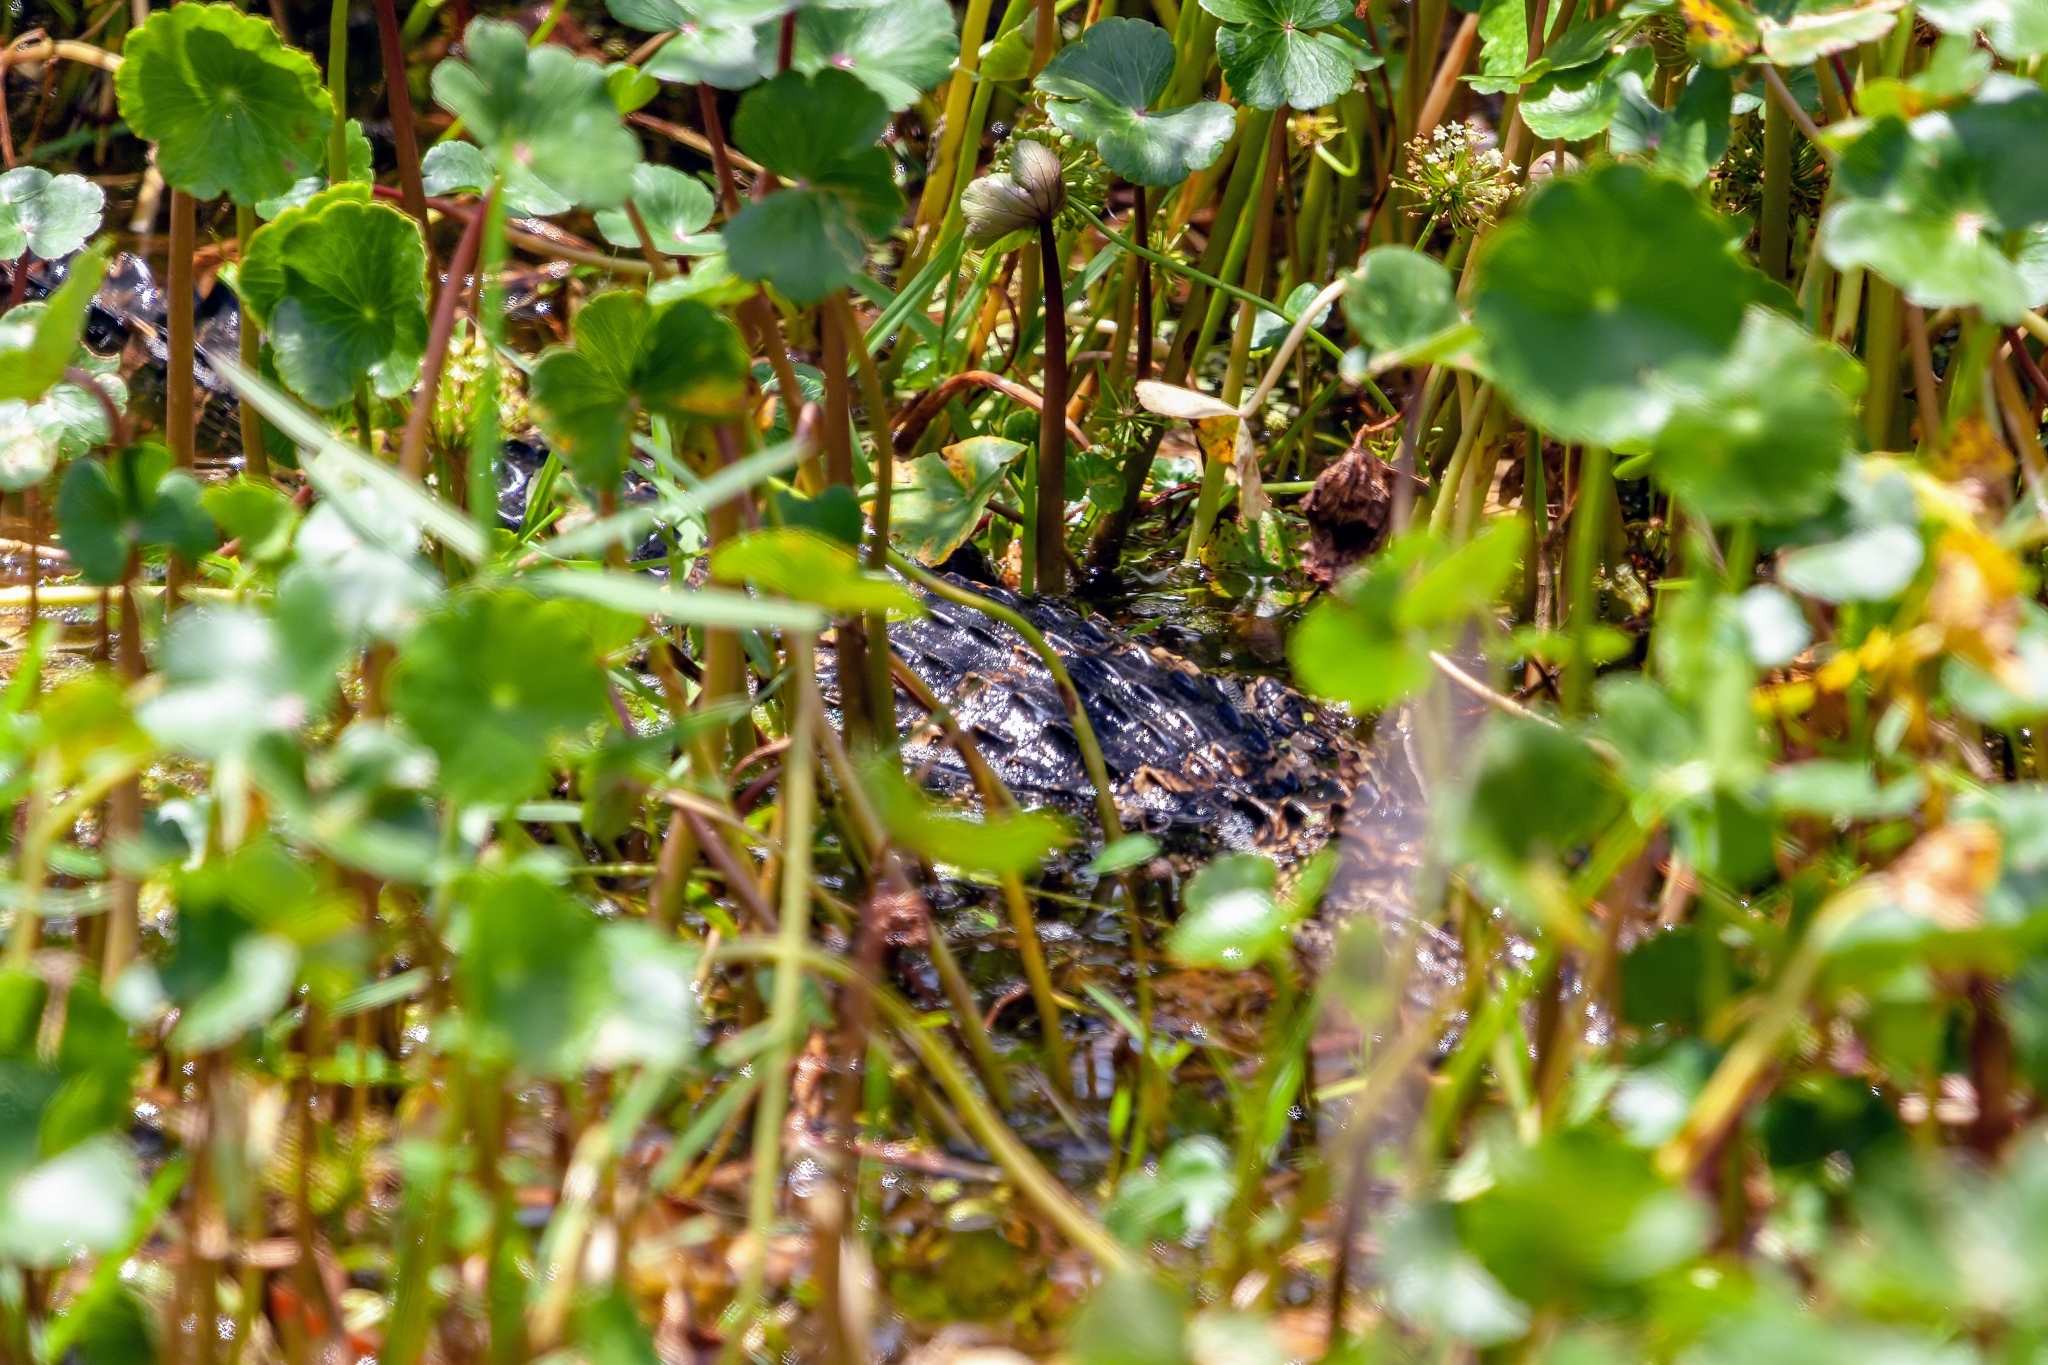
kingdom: Animalia
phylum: Chordata
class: Crocodylia
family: Alligatoridae
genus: Alligator
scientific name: Alligator mississippiensis
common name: American alligator
